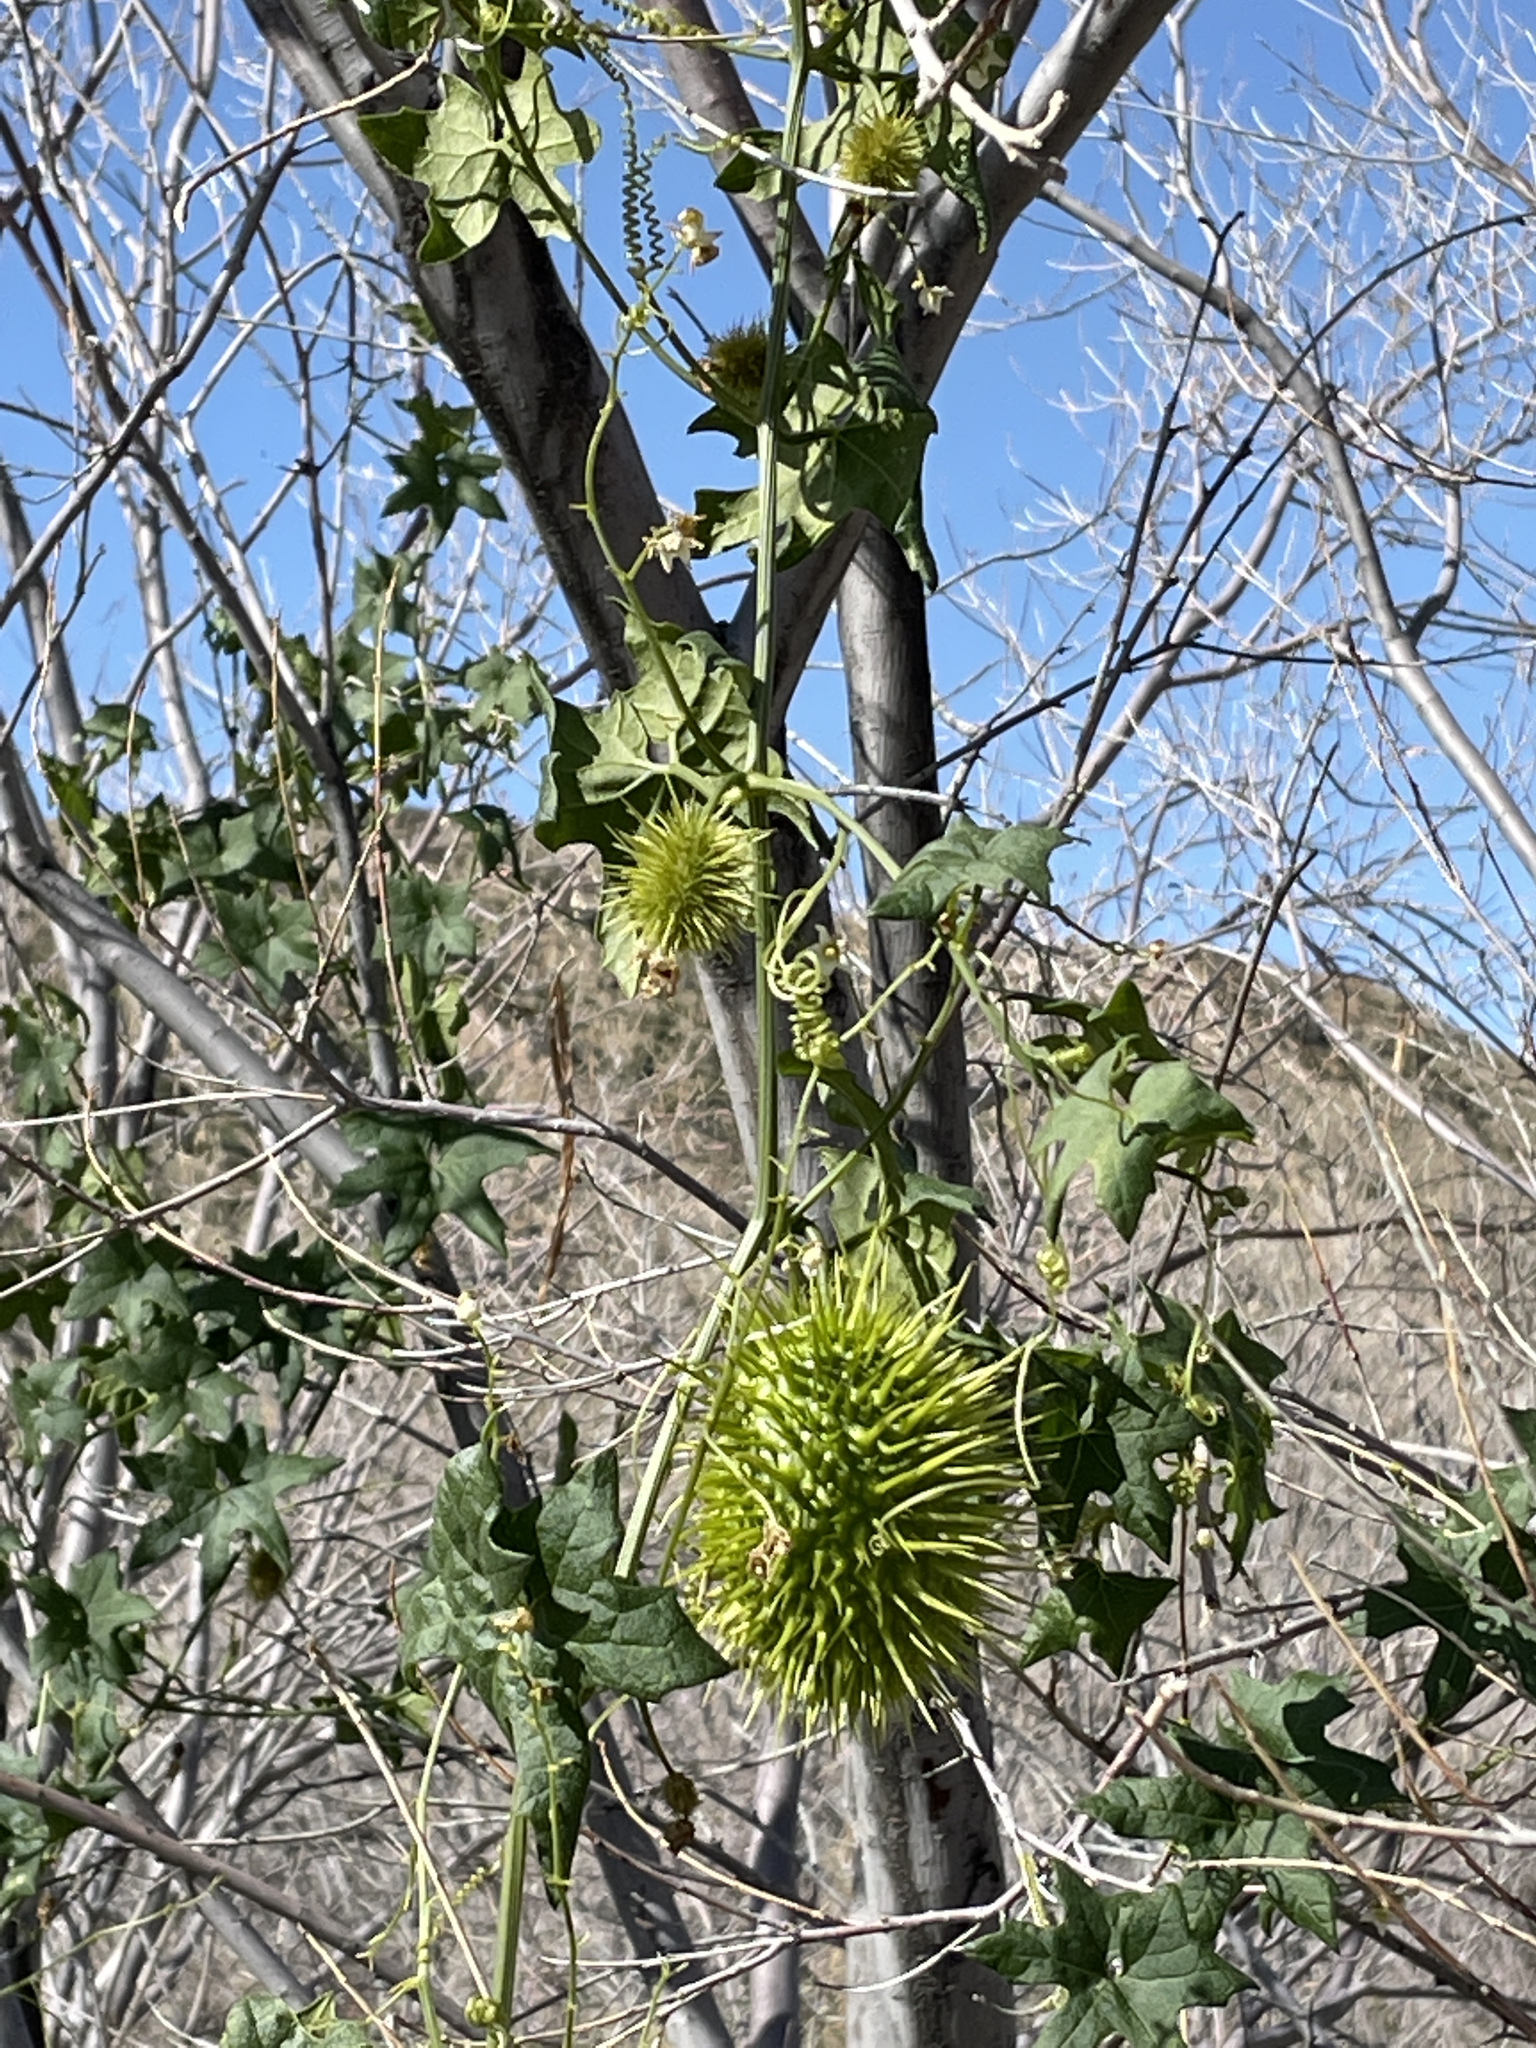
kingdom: Plantae
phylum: Tracheophyta
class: Magnoliopsida
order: Cucurbitales
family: Cucurbitaceae
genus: Marah
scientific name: Marah macrocarpa
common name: Cucamonga manroot
